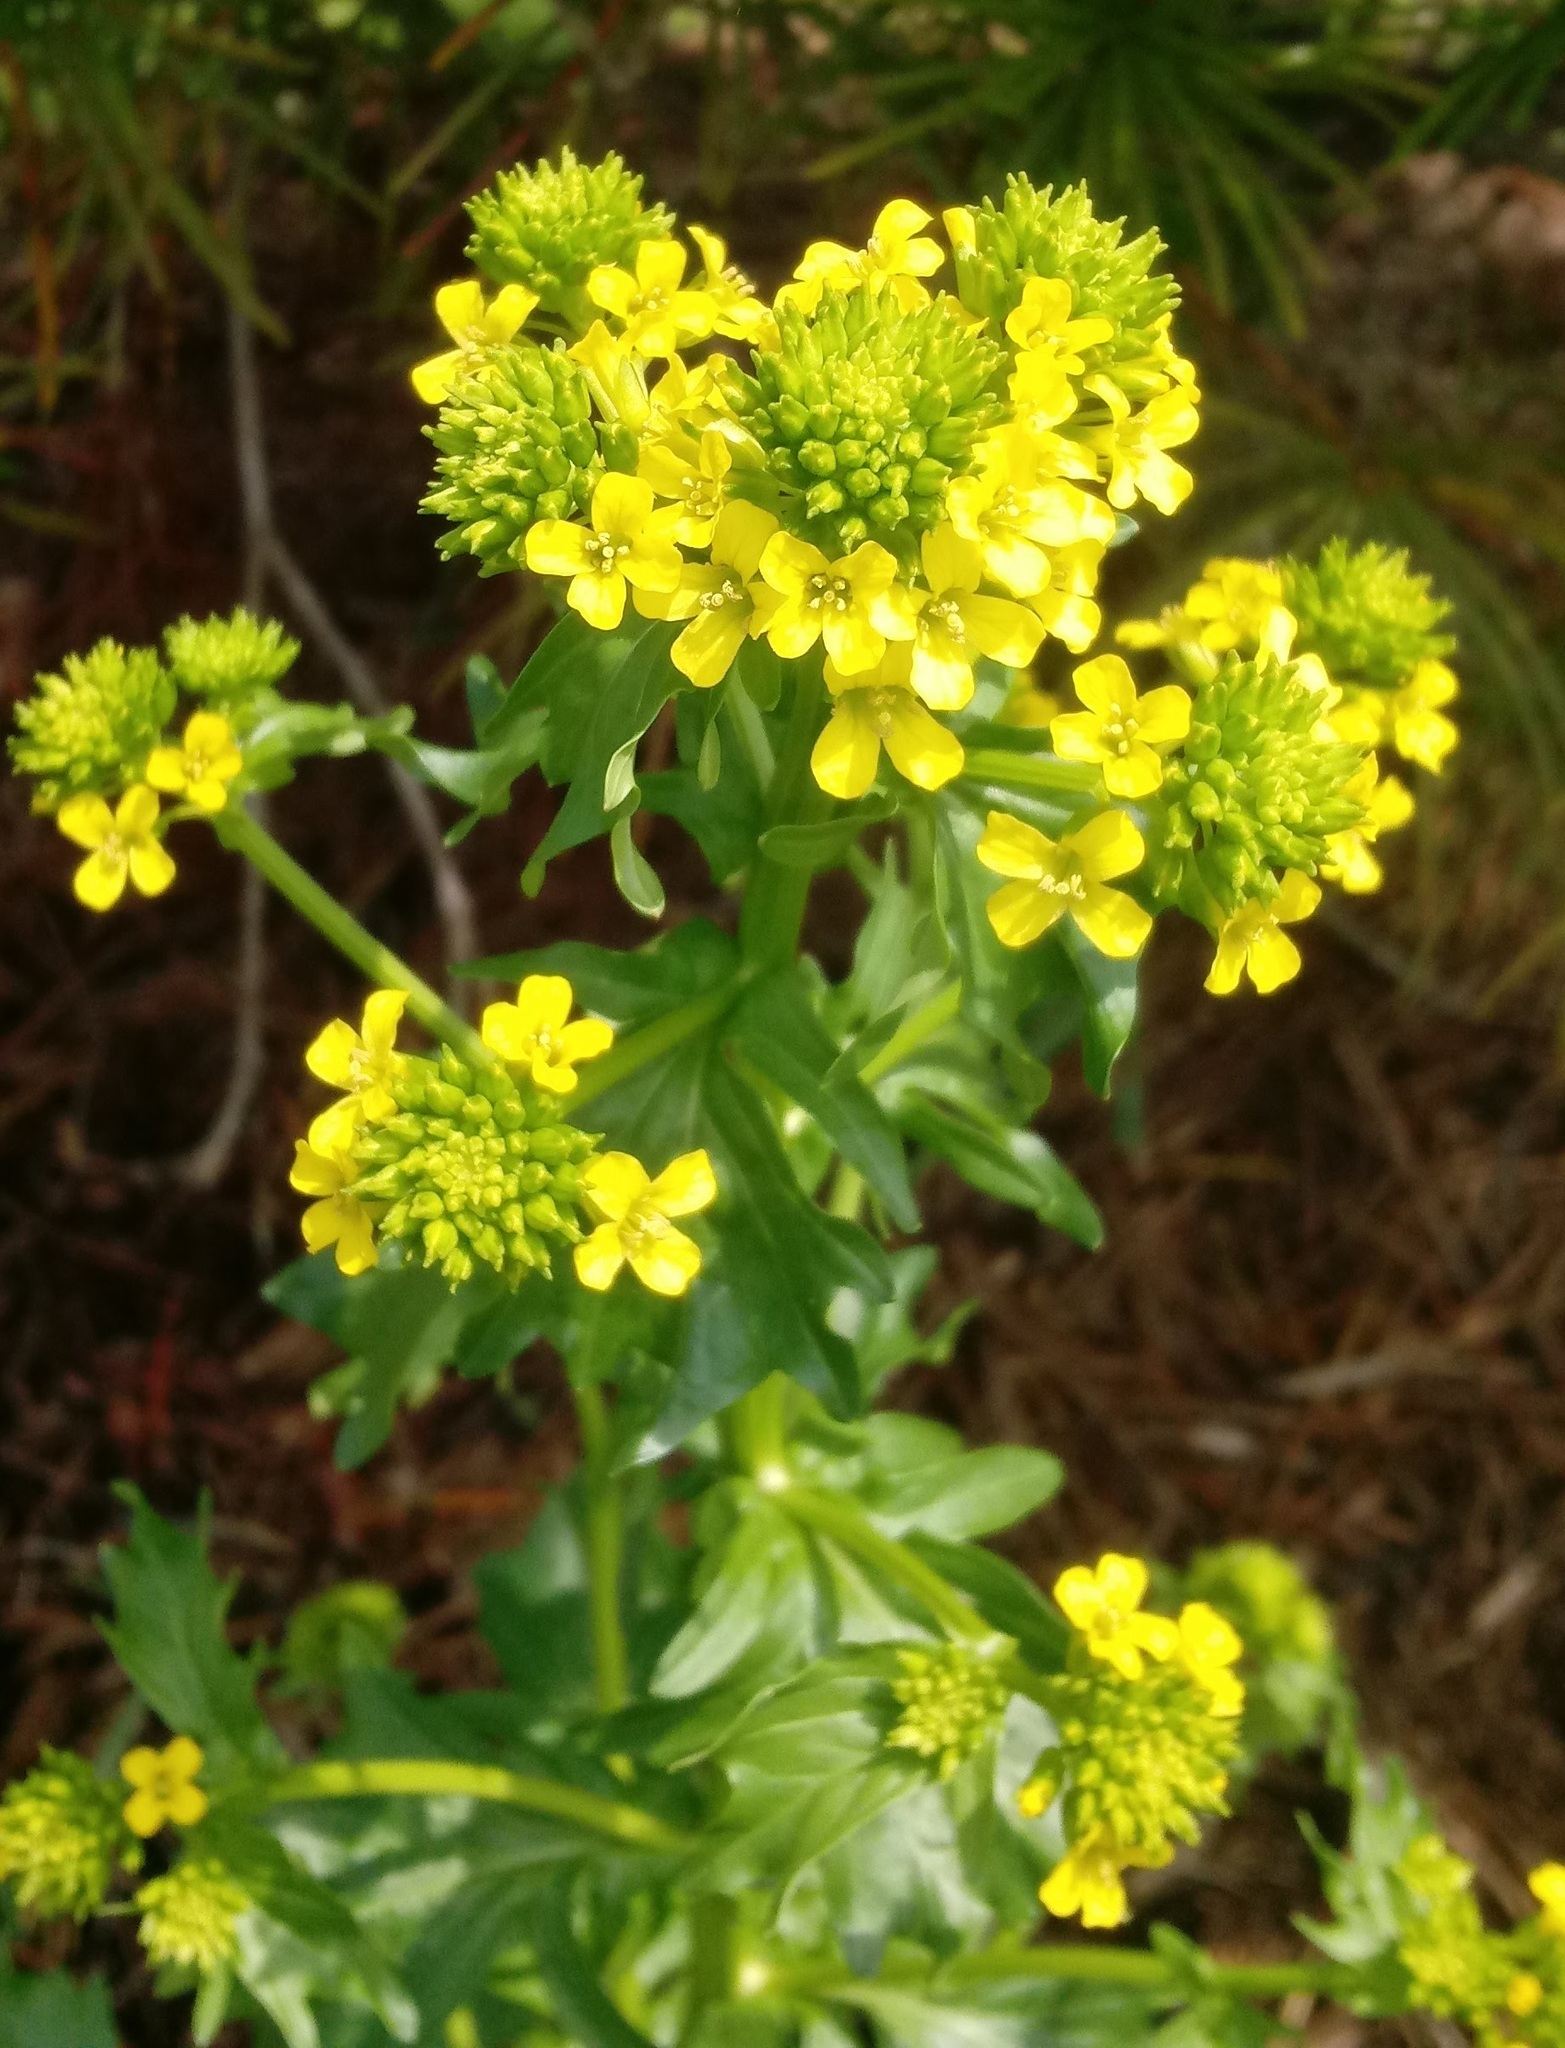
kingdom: Plantae
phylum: Tracheophyta
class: Magnoliopsida
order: Brassicales
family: Brassicaceae
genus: Barbarea
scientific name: Barbarea vulgaris
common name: Cressy-greens
